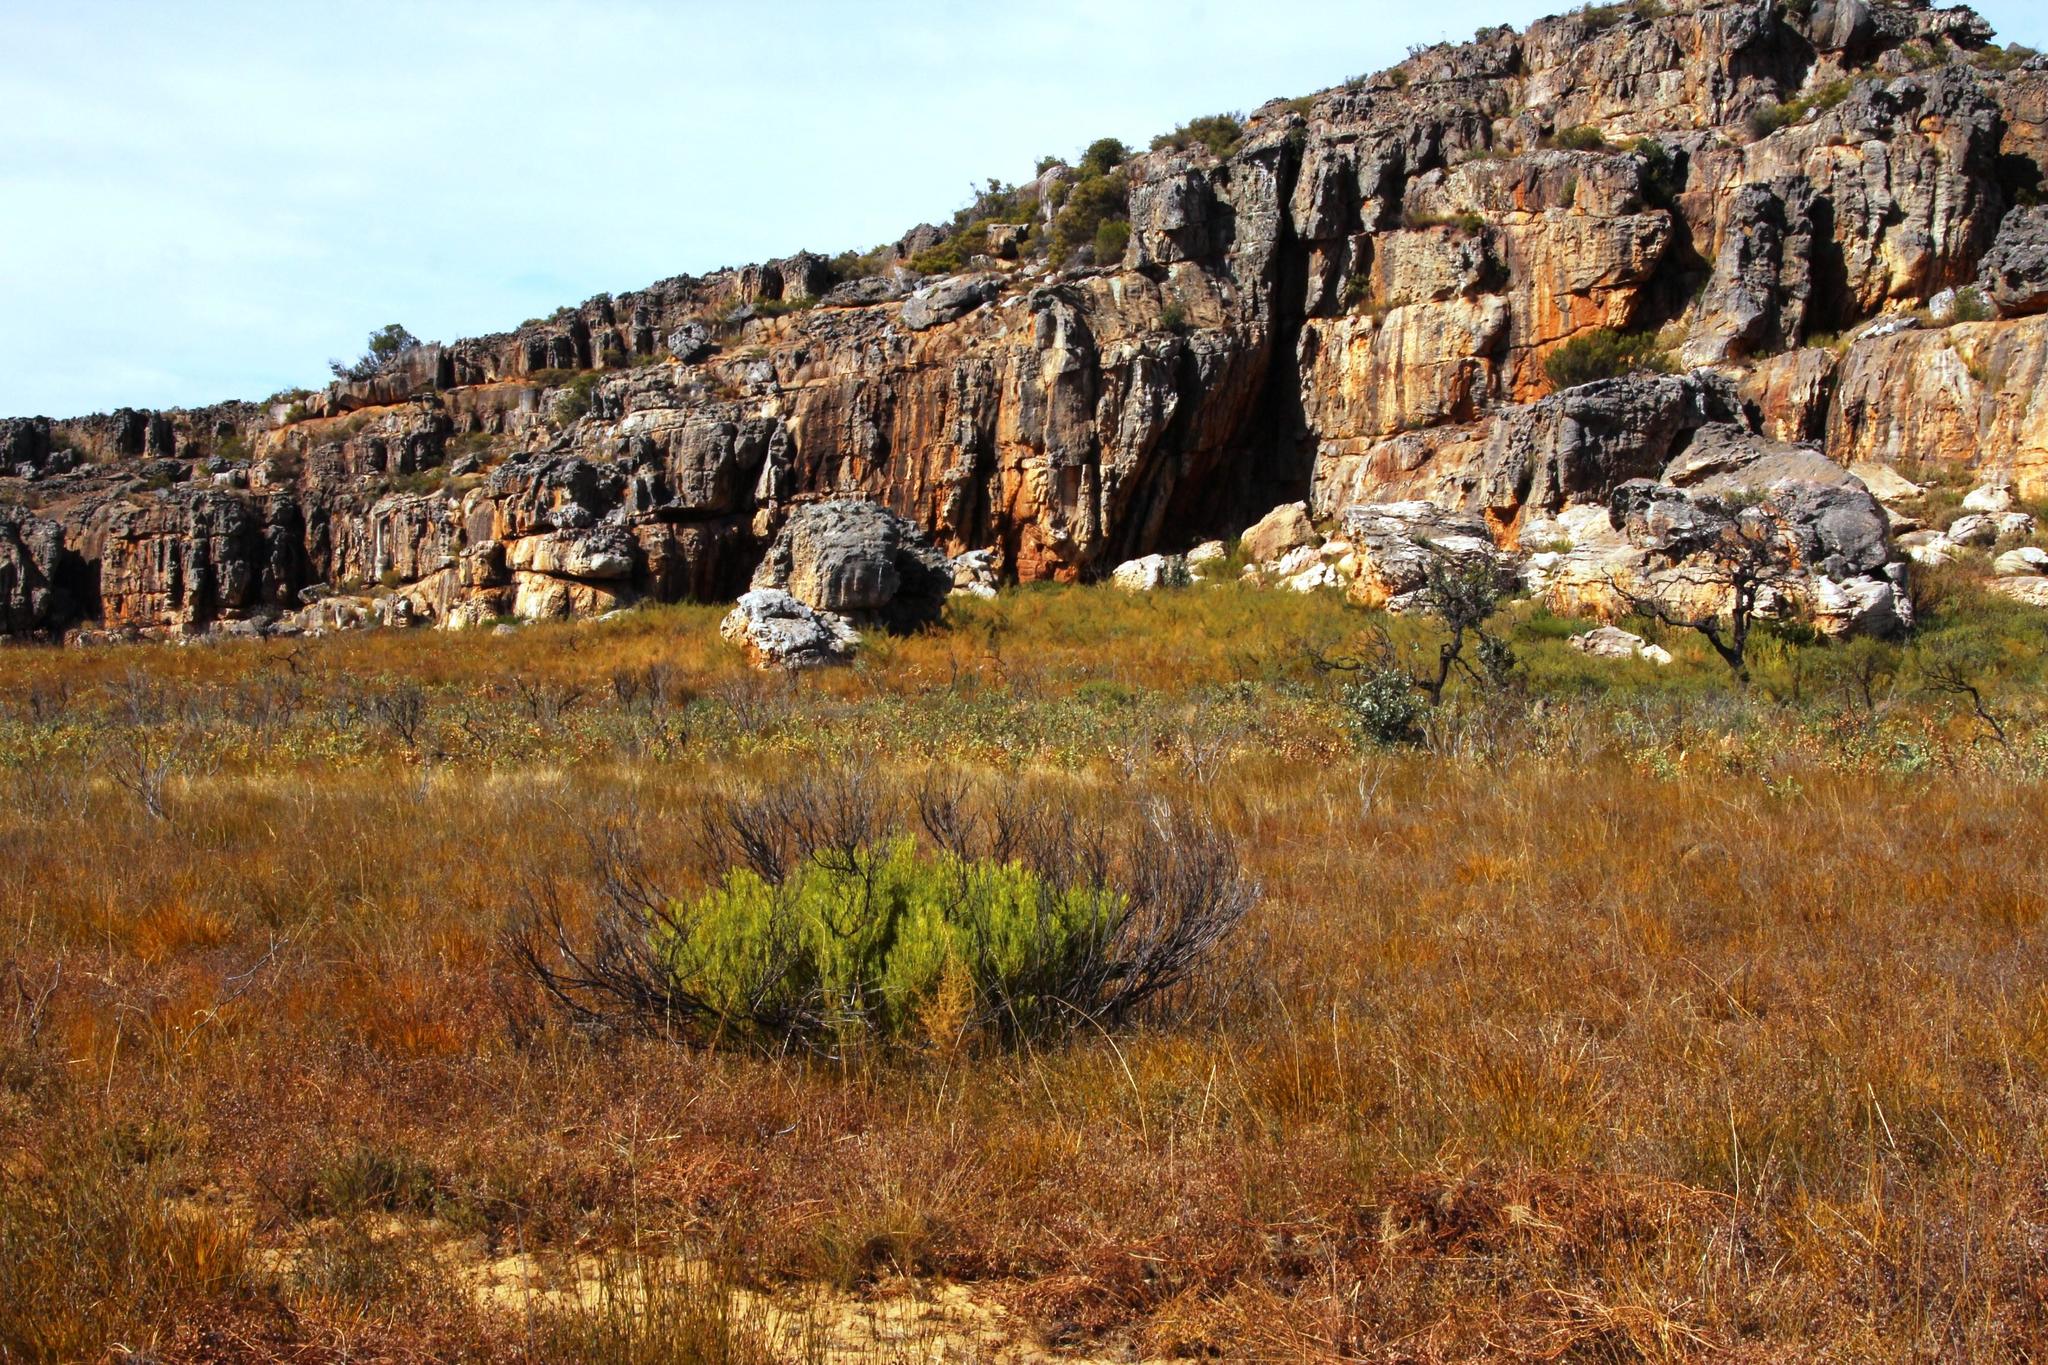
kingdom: Plantae
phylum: Tracheophyta
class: Magnoliopsida
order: Proteales
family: Proteaceae
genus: Leucadendron
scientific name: Leucadendron salignum
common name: Common sunshine conebush
